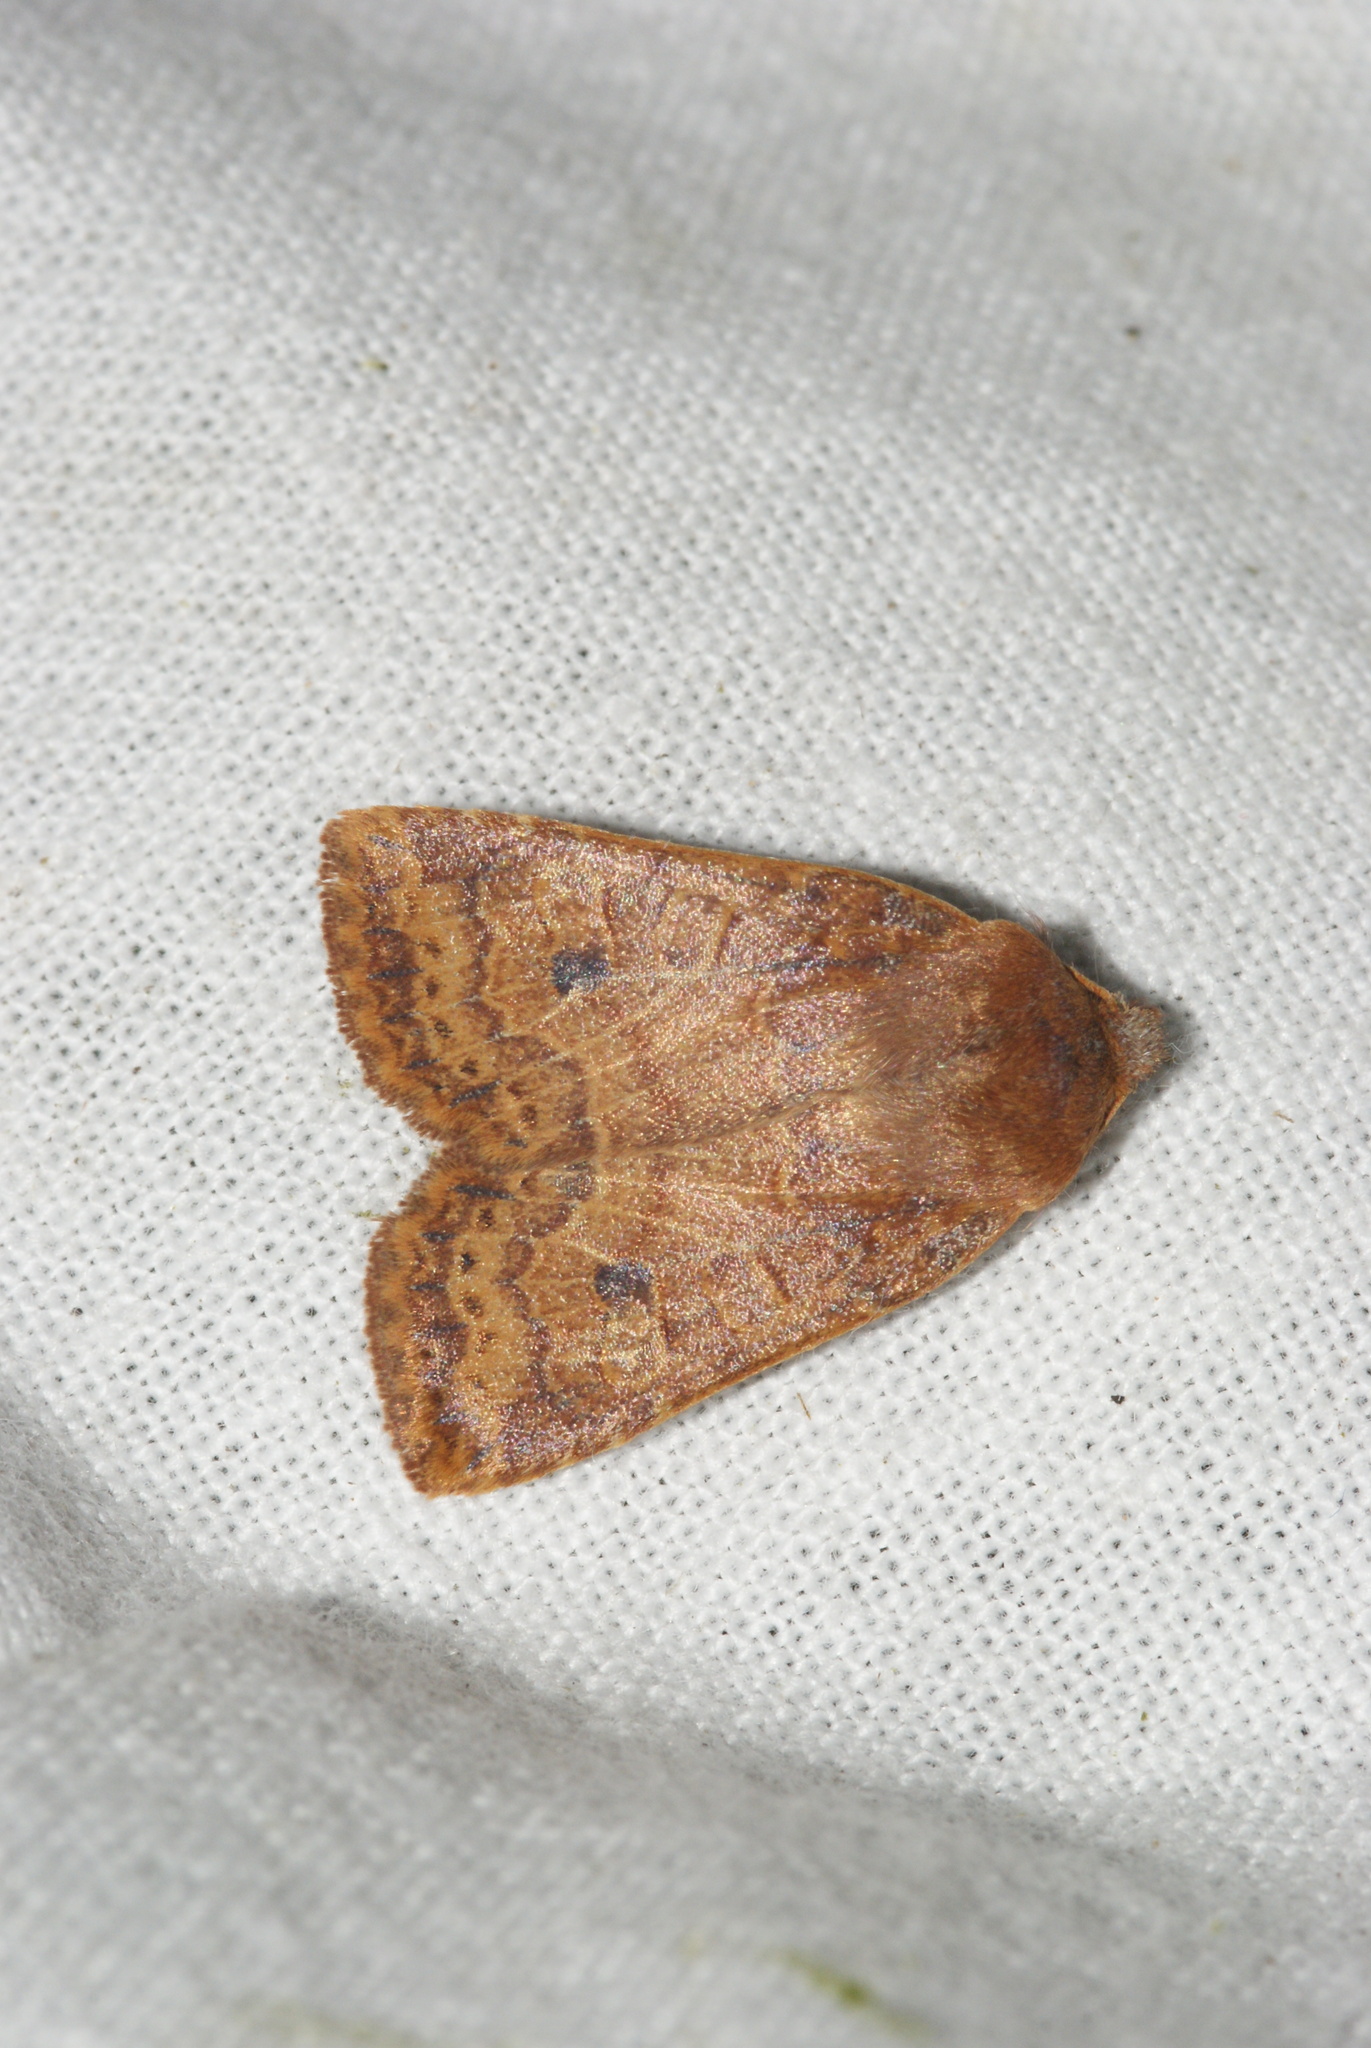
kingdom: Animalia
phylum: Arthropoda
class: Insecta
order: Lepidoptera
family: Noctuidae
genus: Conistra
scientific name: Conistra vaccinii
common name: Chestnut
